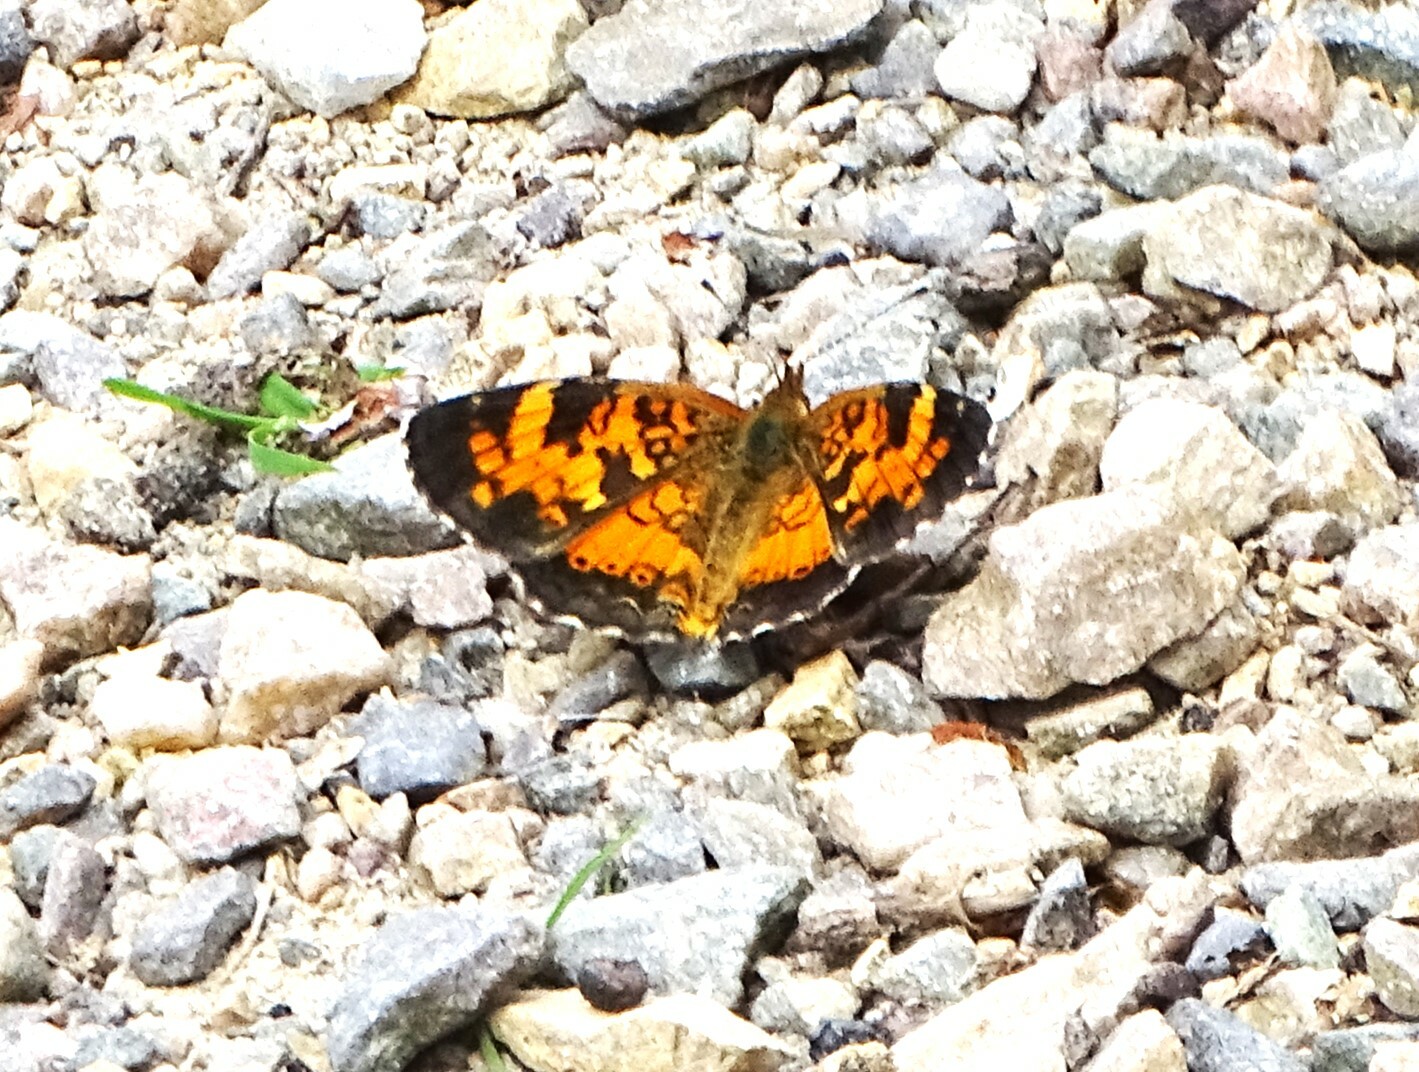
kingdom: Animalia
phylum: Arthropoda
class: Insecta
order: Lepidoptera
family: Nymphalidae
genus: Phyciodes
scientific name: Phyciodes tharos
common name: Pearl crescent
